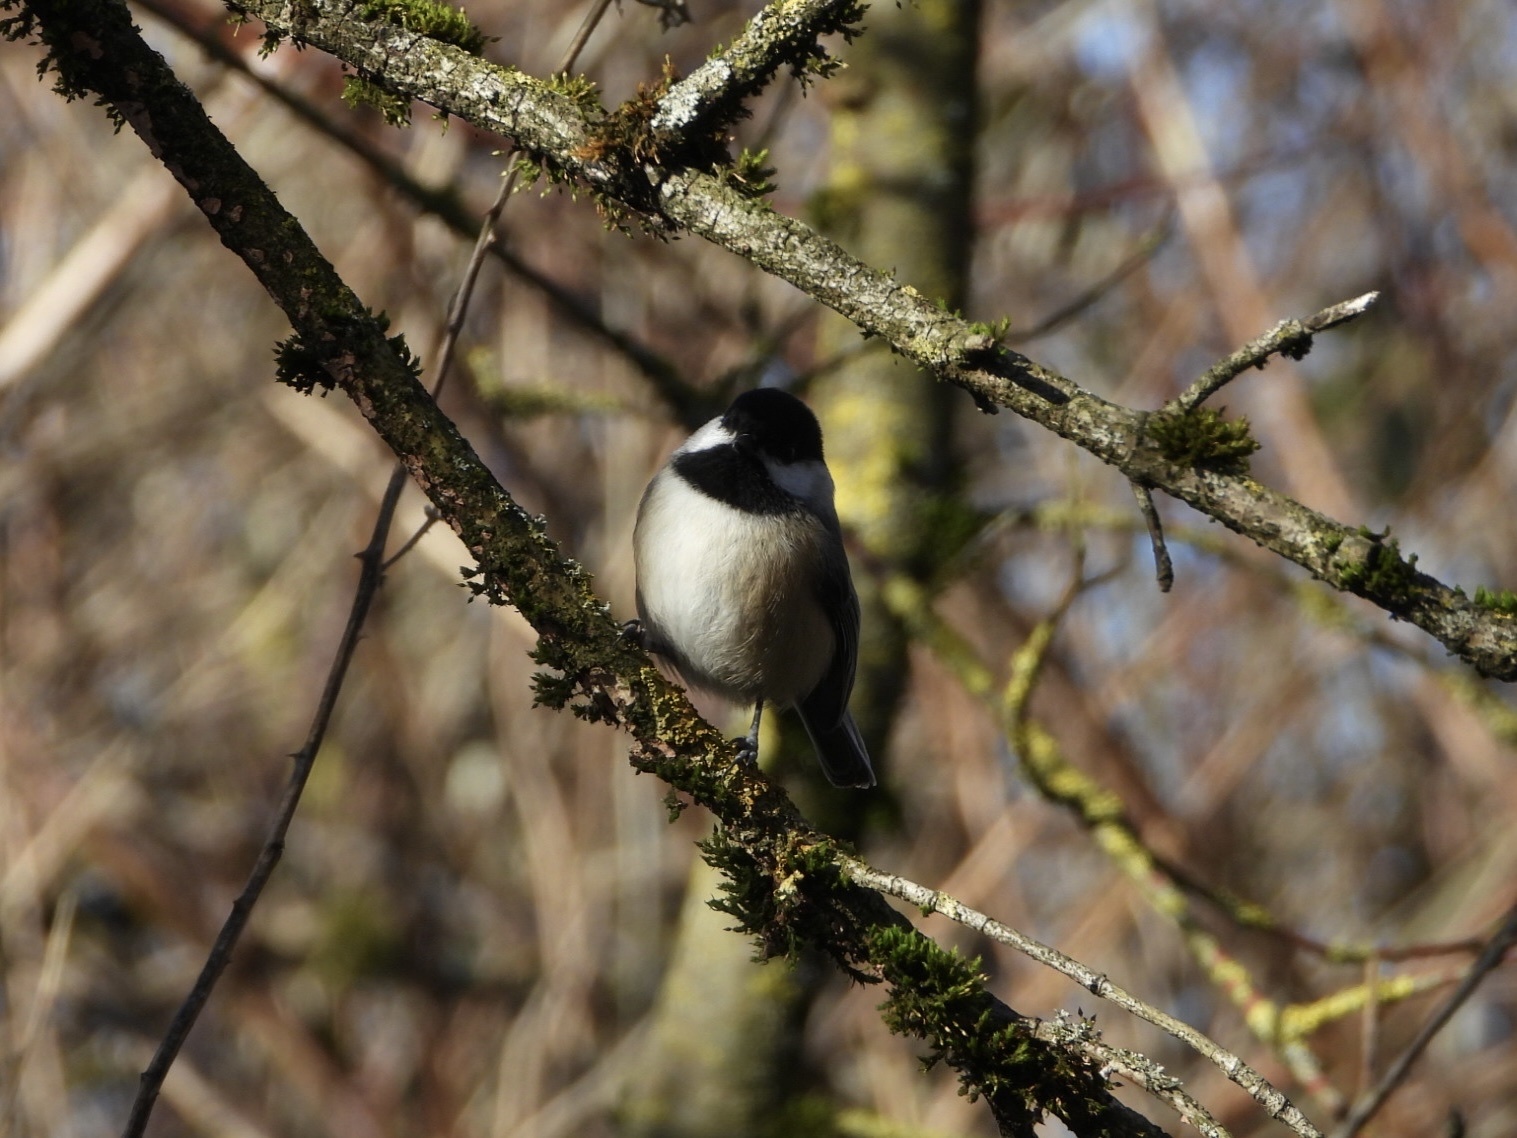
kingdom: Animalia
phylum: Chordata
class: Aves
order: Passeriformes
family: Paridae
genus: Poecile
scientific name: Poecile atricapillus
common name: Black-capped chickadee
